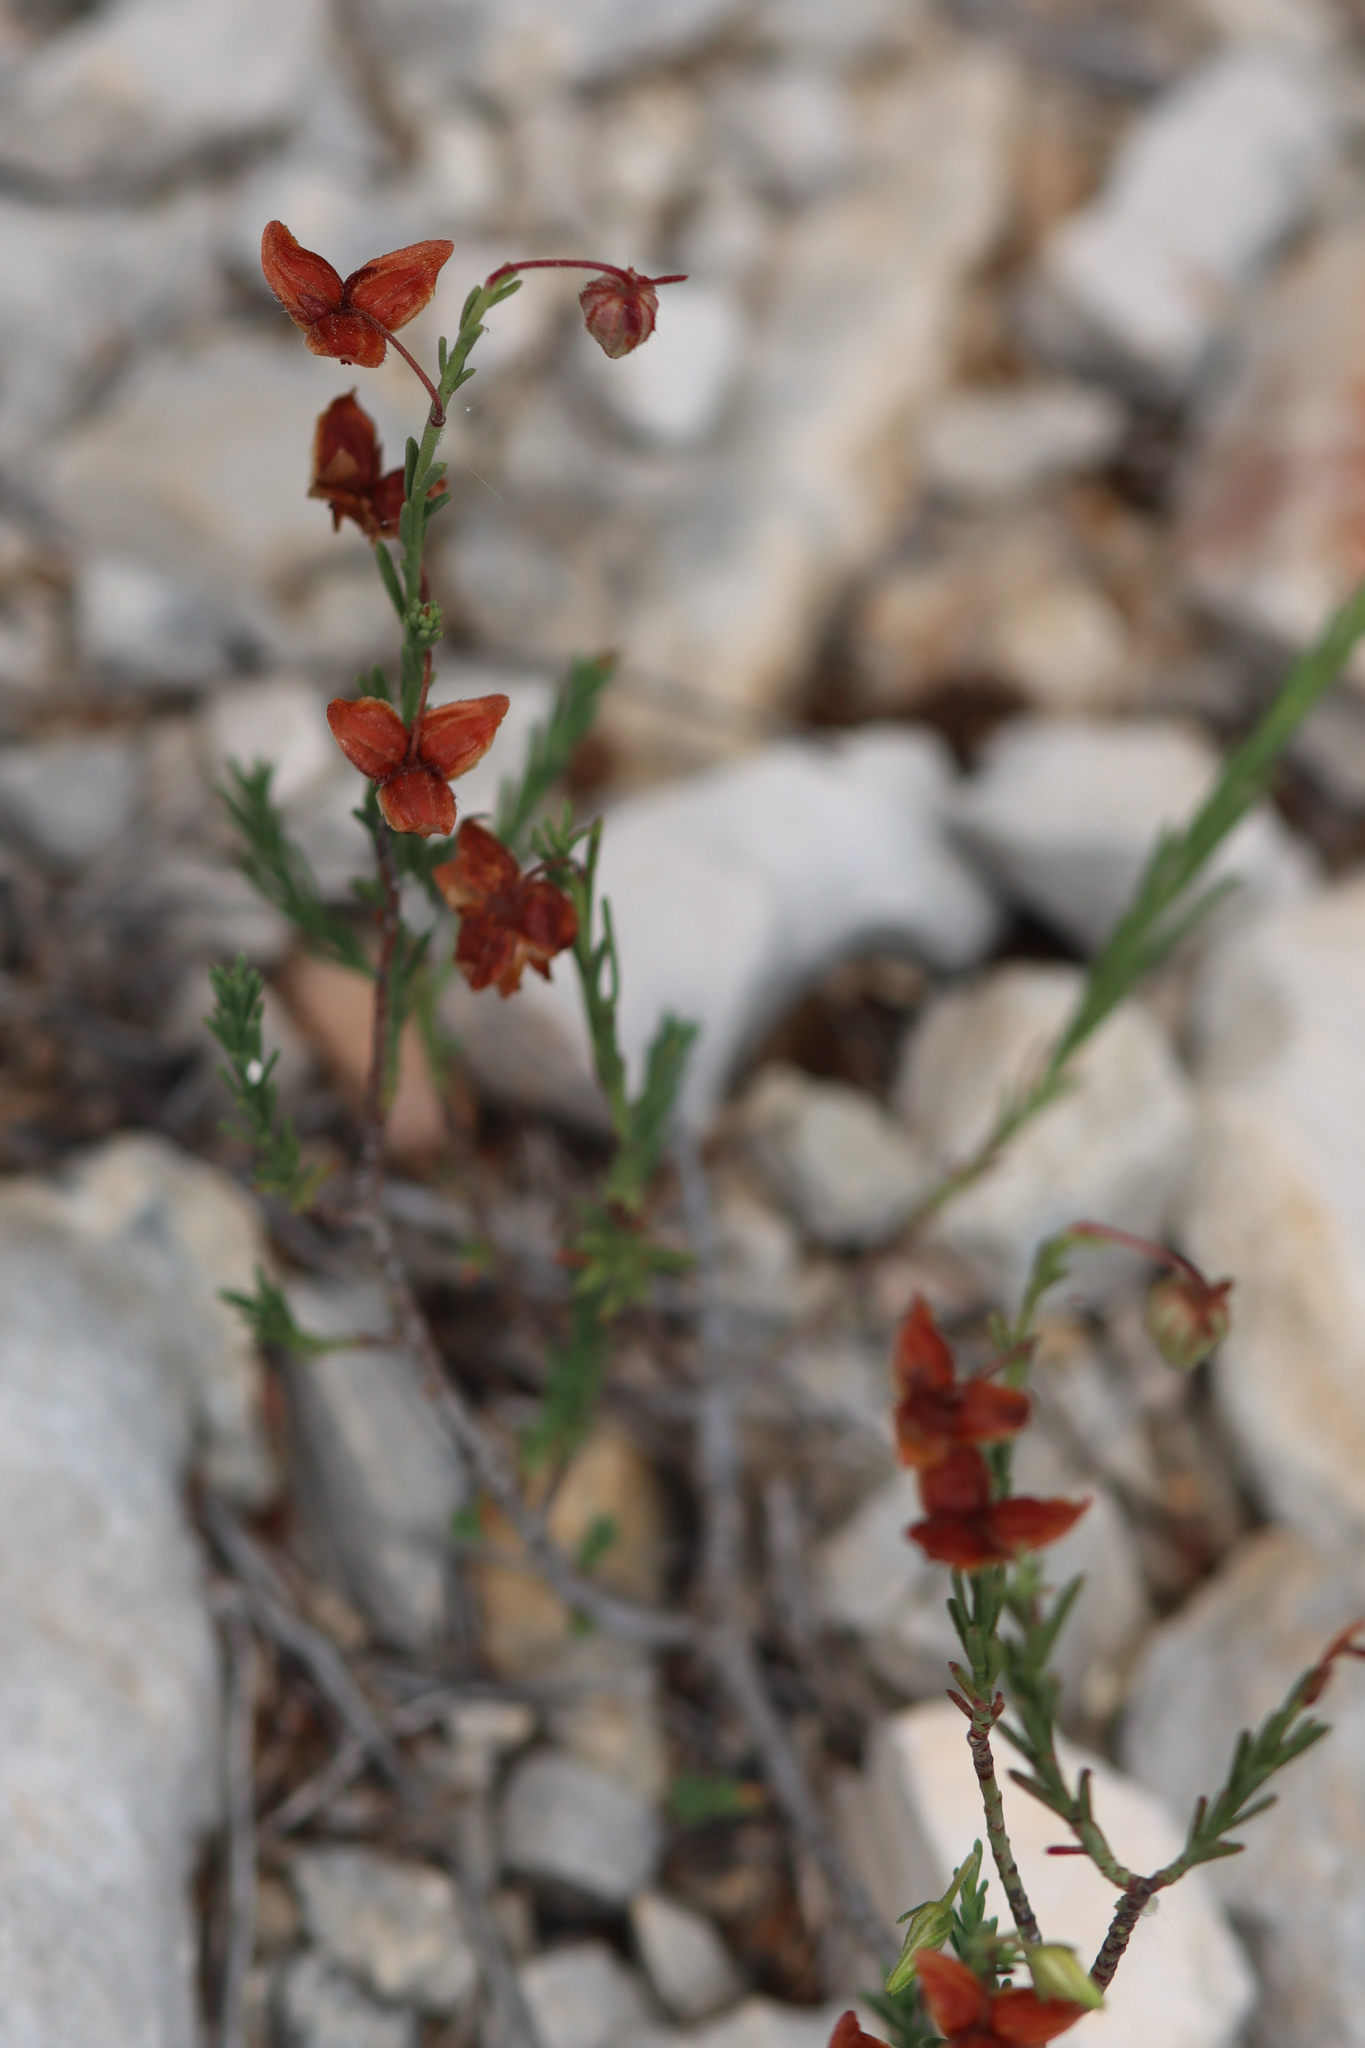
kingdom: Plantae
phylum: Tracheophyta
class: Magnoliopsida
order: Malvales
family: Cistaceae
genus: Fumana
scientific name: Fumana ericifolia
